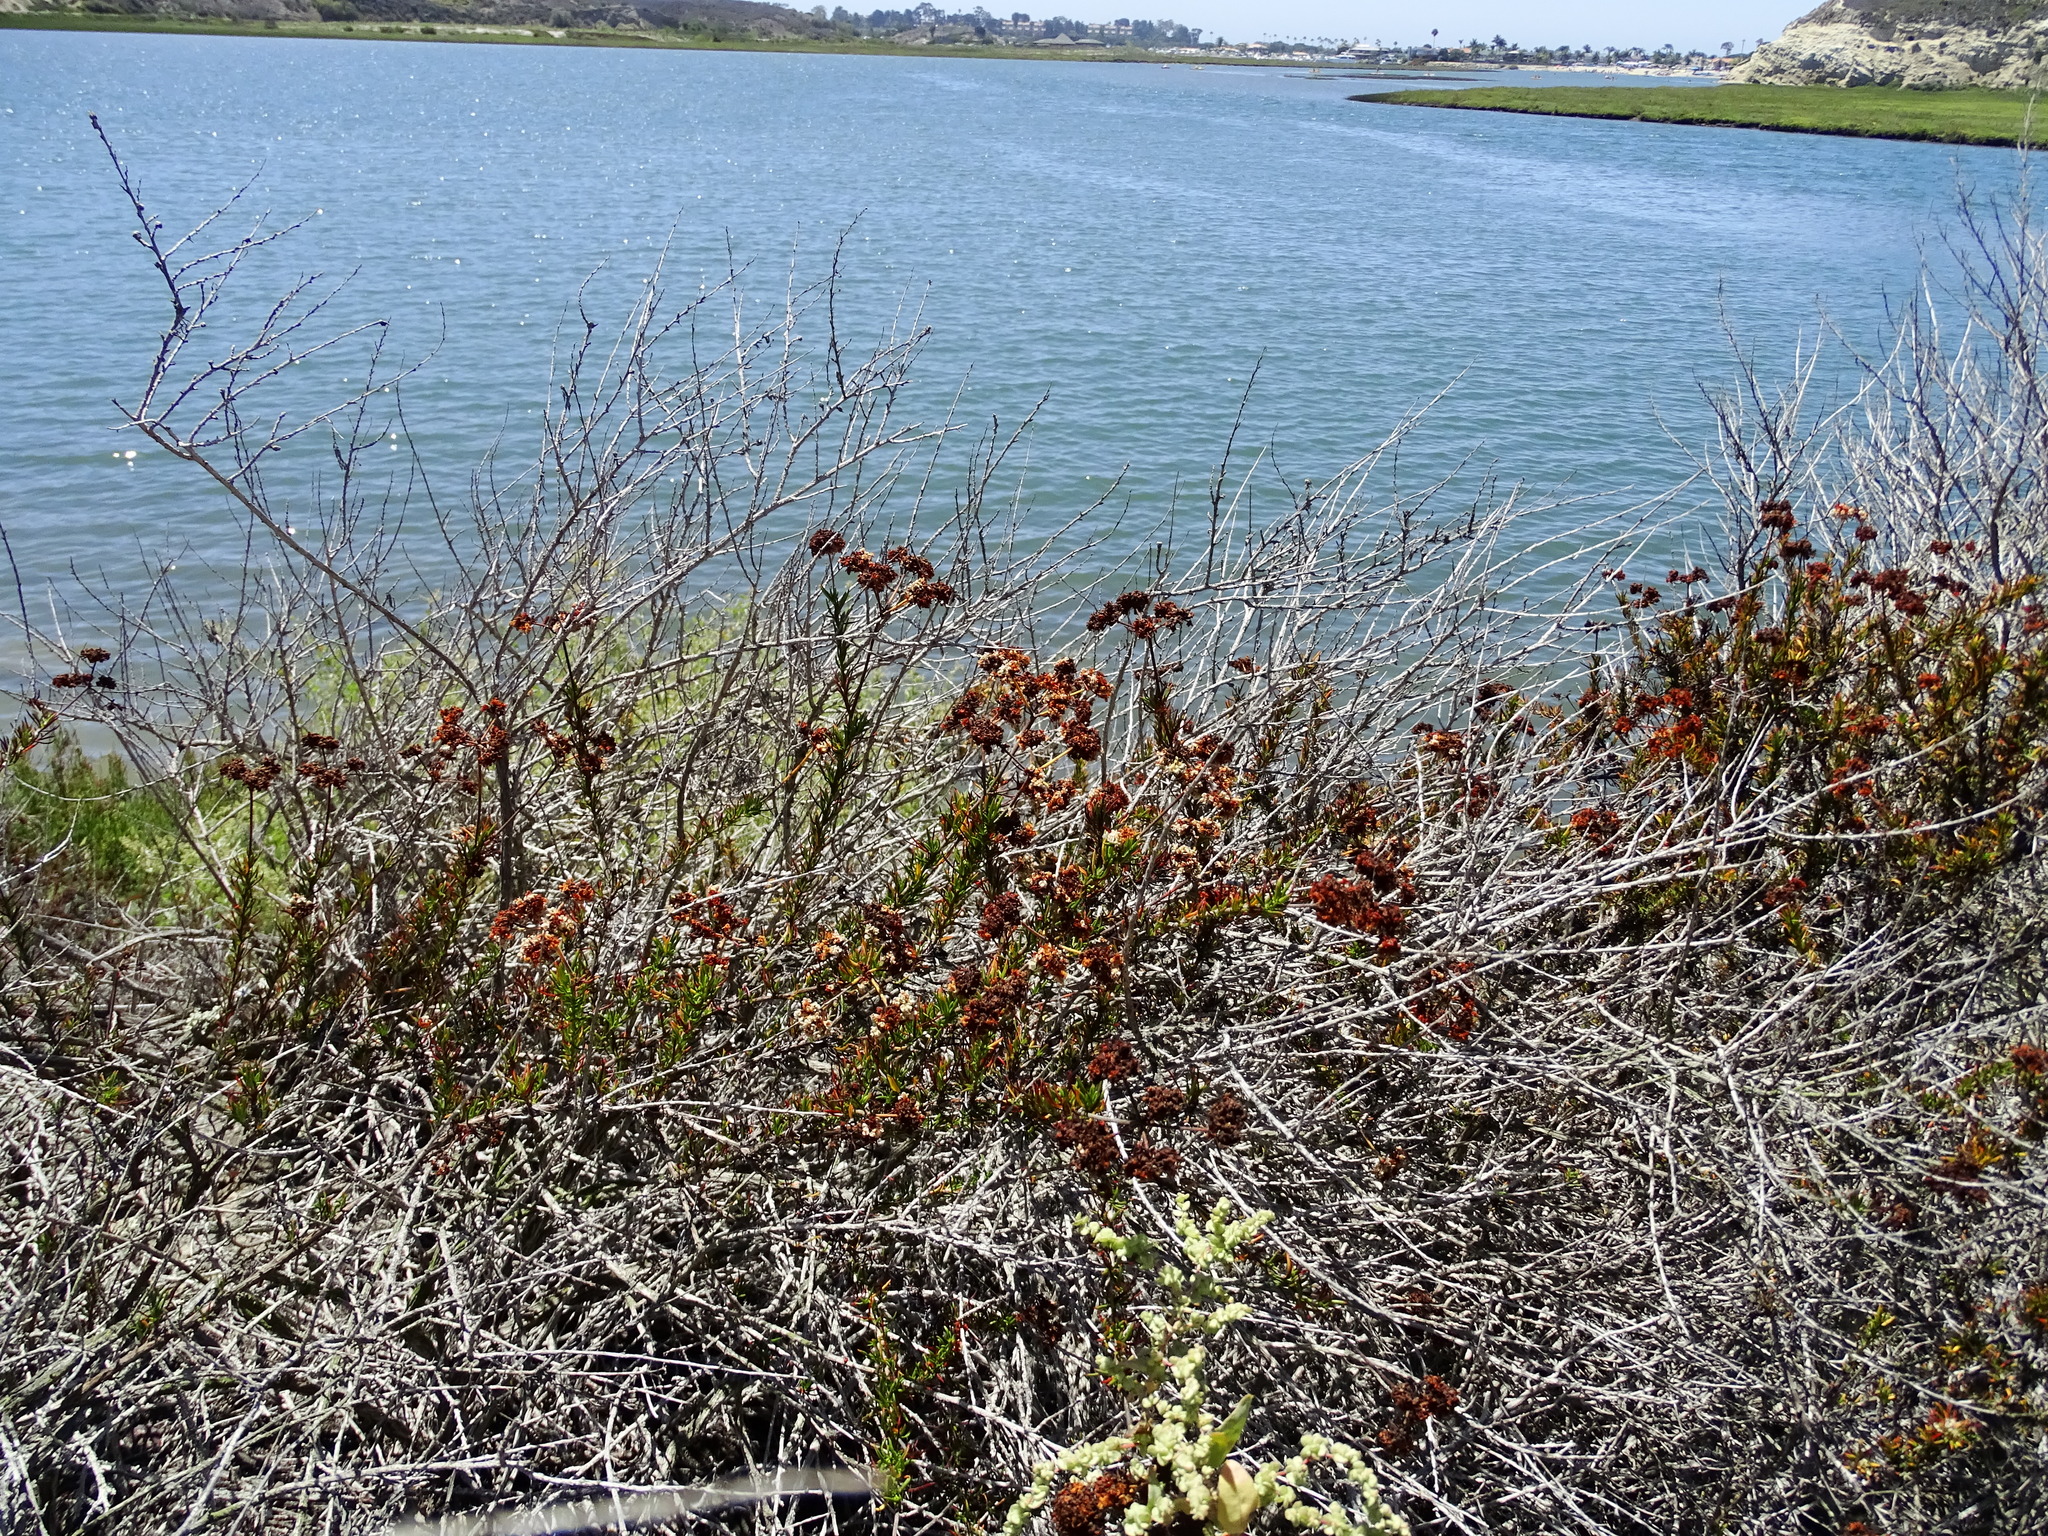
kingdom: Plantae
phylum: Tracheophyta
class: Magnoliopsida
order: Caryophyllales
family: Polygonaceae
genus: Eriogonum
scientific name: Eriogonum fasciculatum
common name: California wild buckwheat
